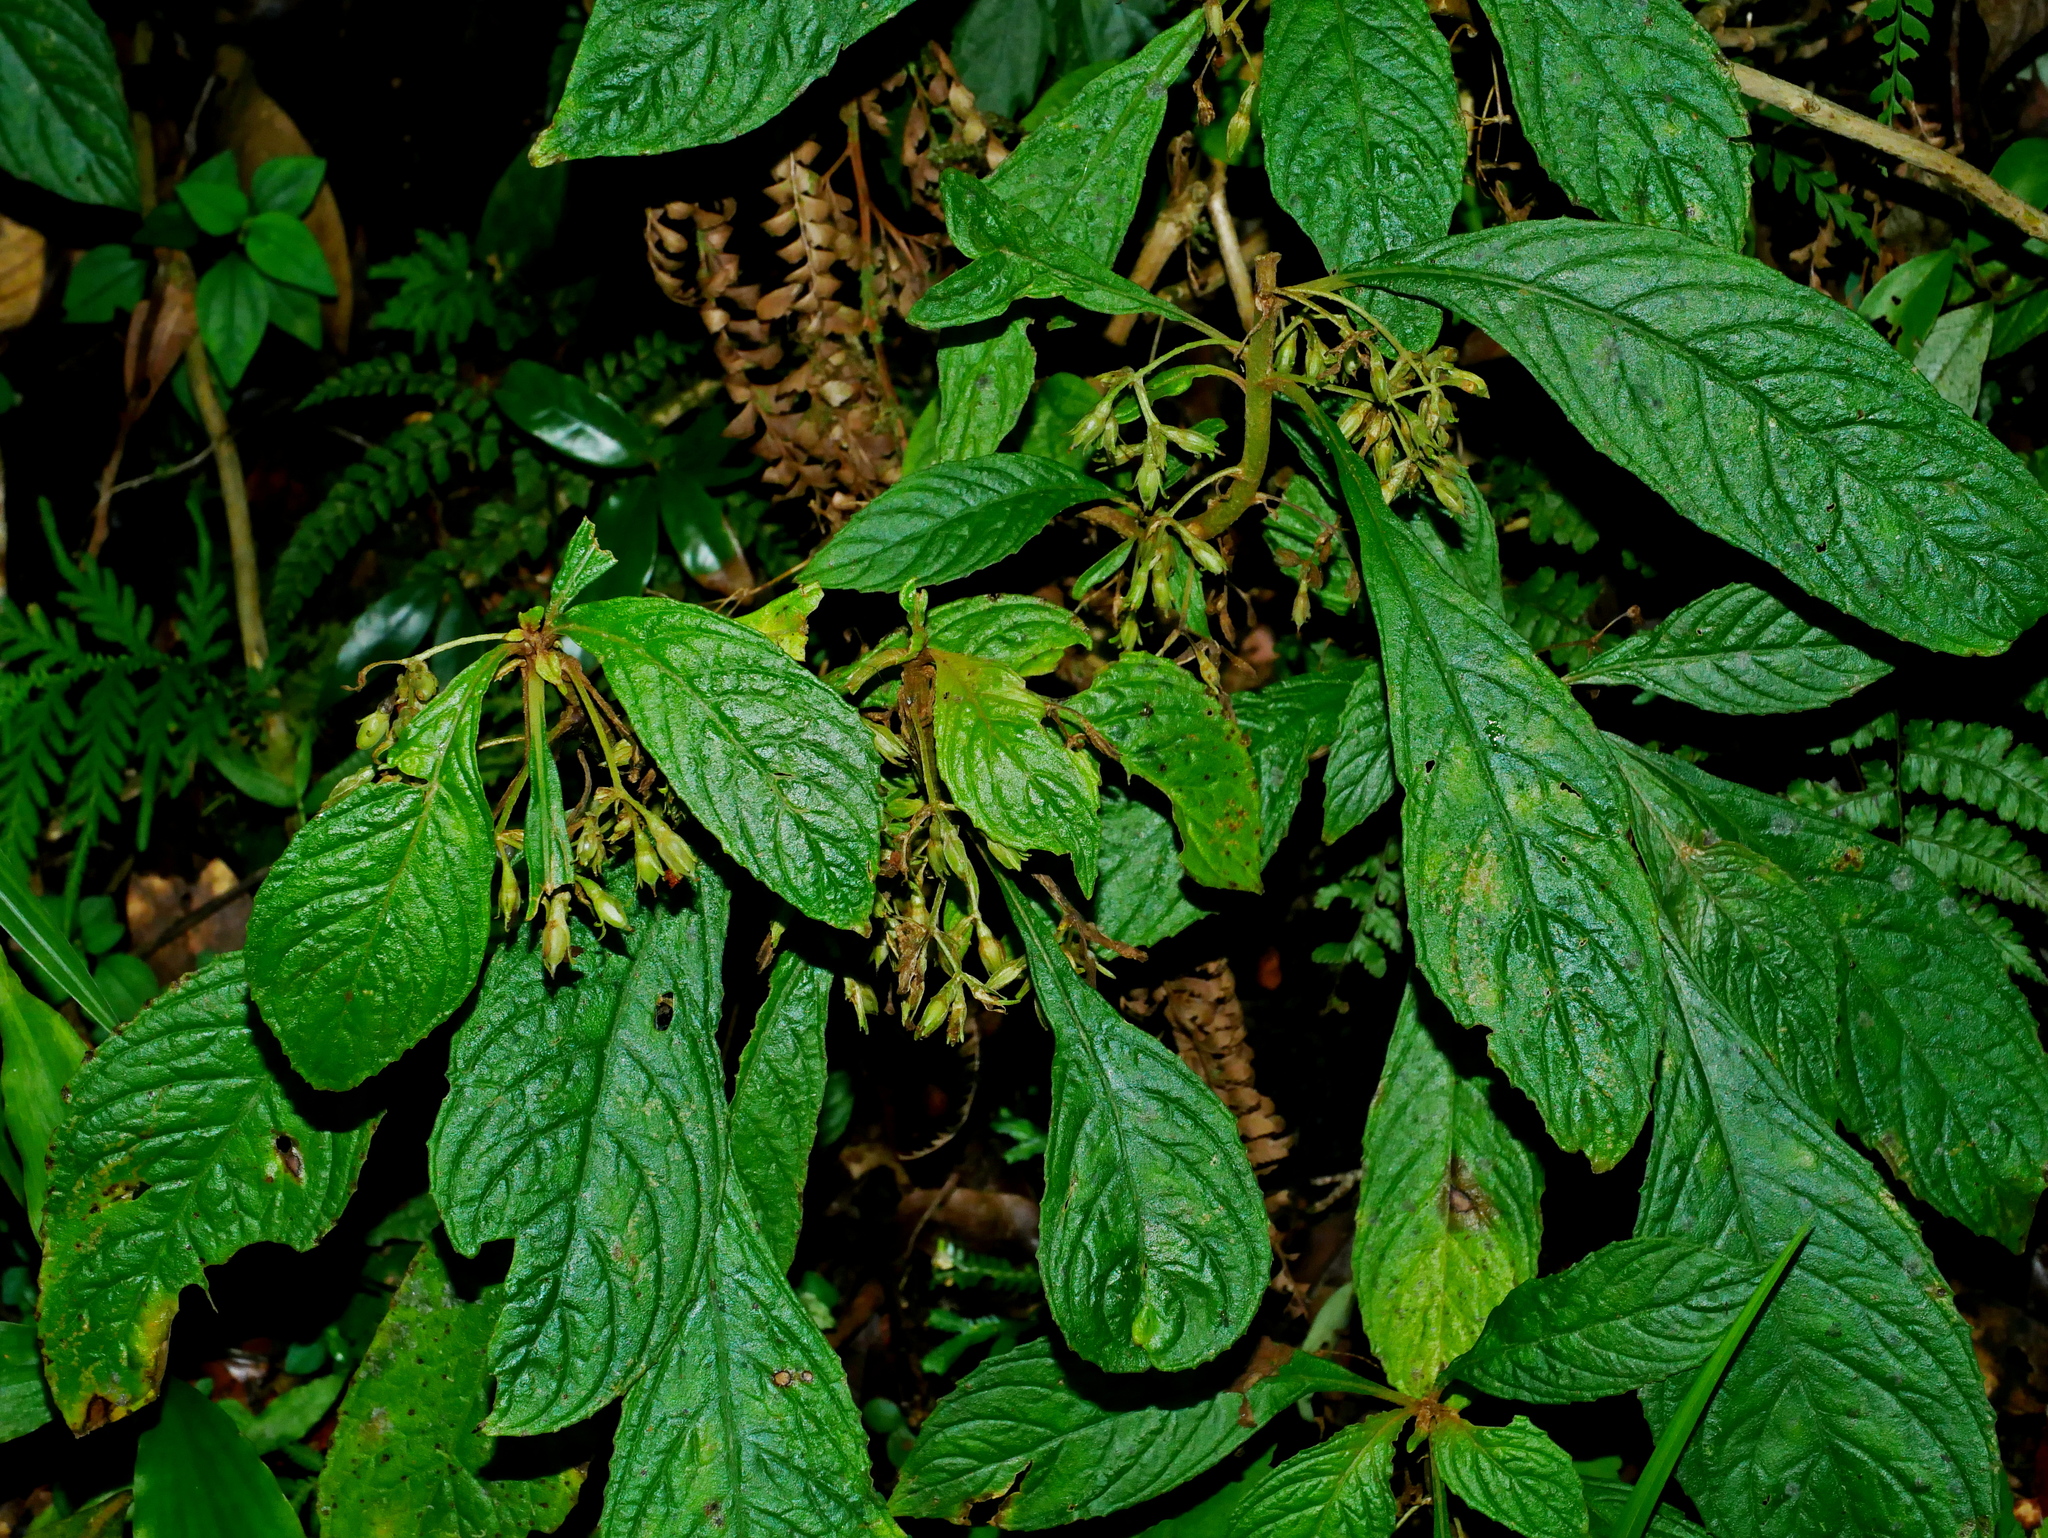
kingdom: Plantae
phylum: Tracheophyta
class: Magnoliopsida
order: Lamiales
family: Gesneriaceae
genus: Rhynchotechum
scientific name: Rhynchotechum discolor
